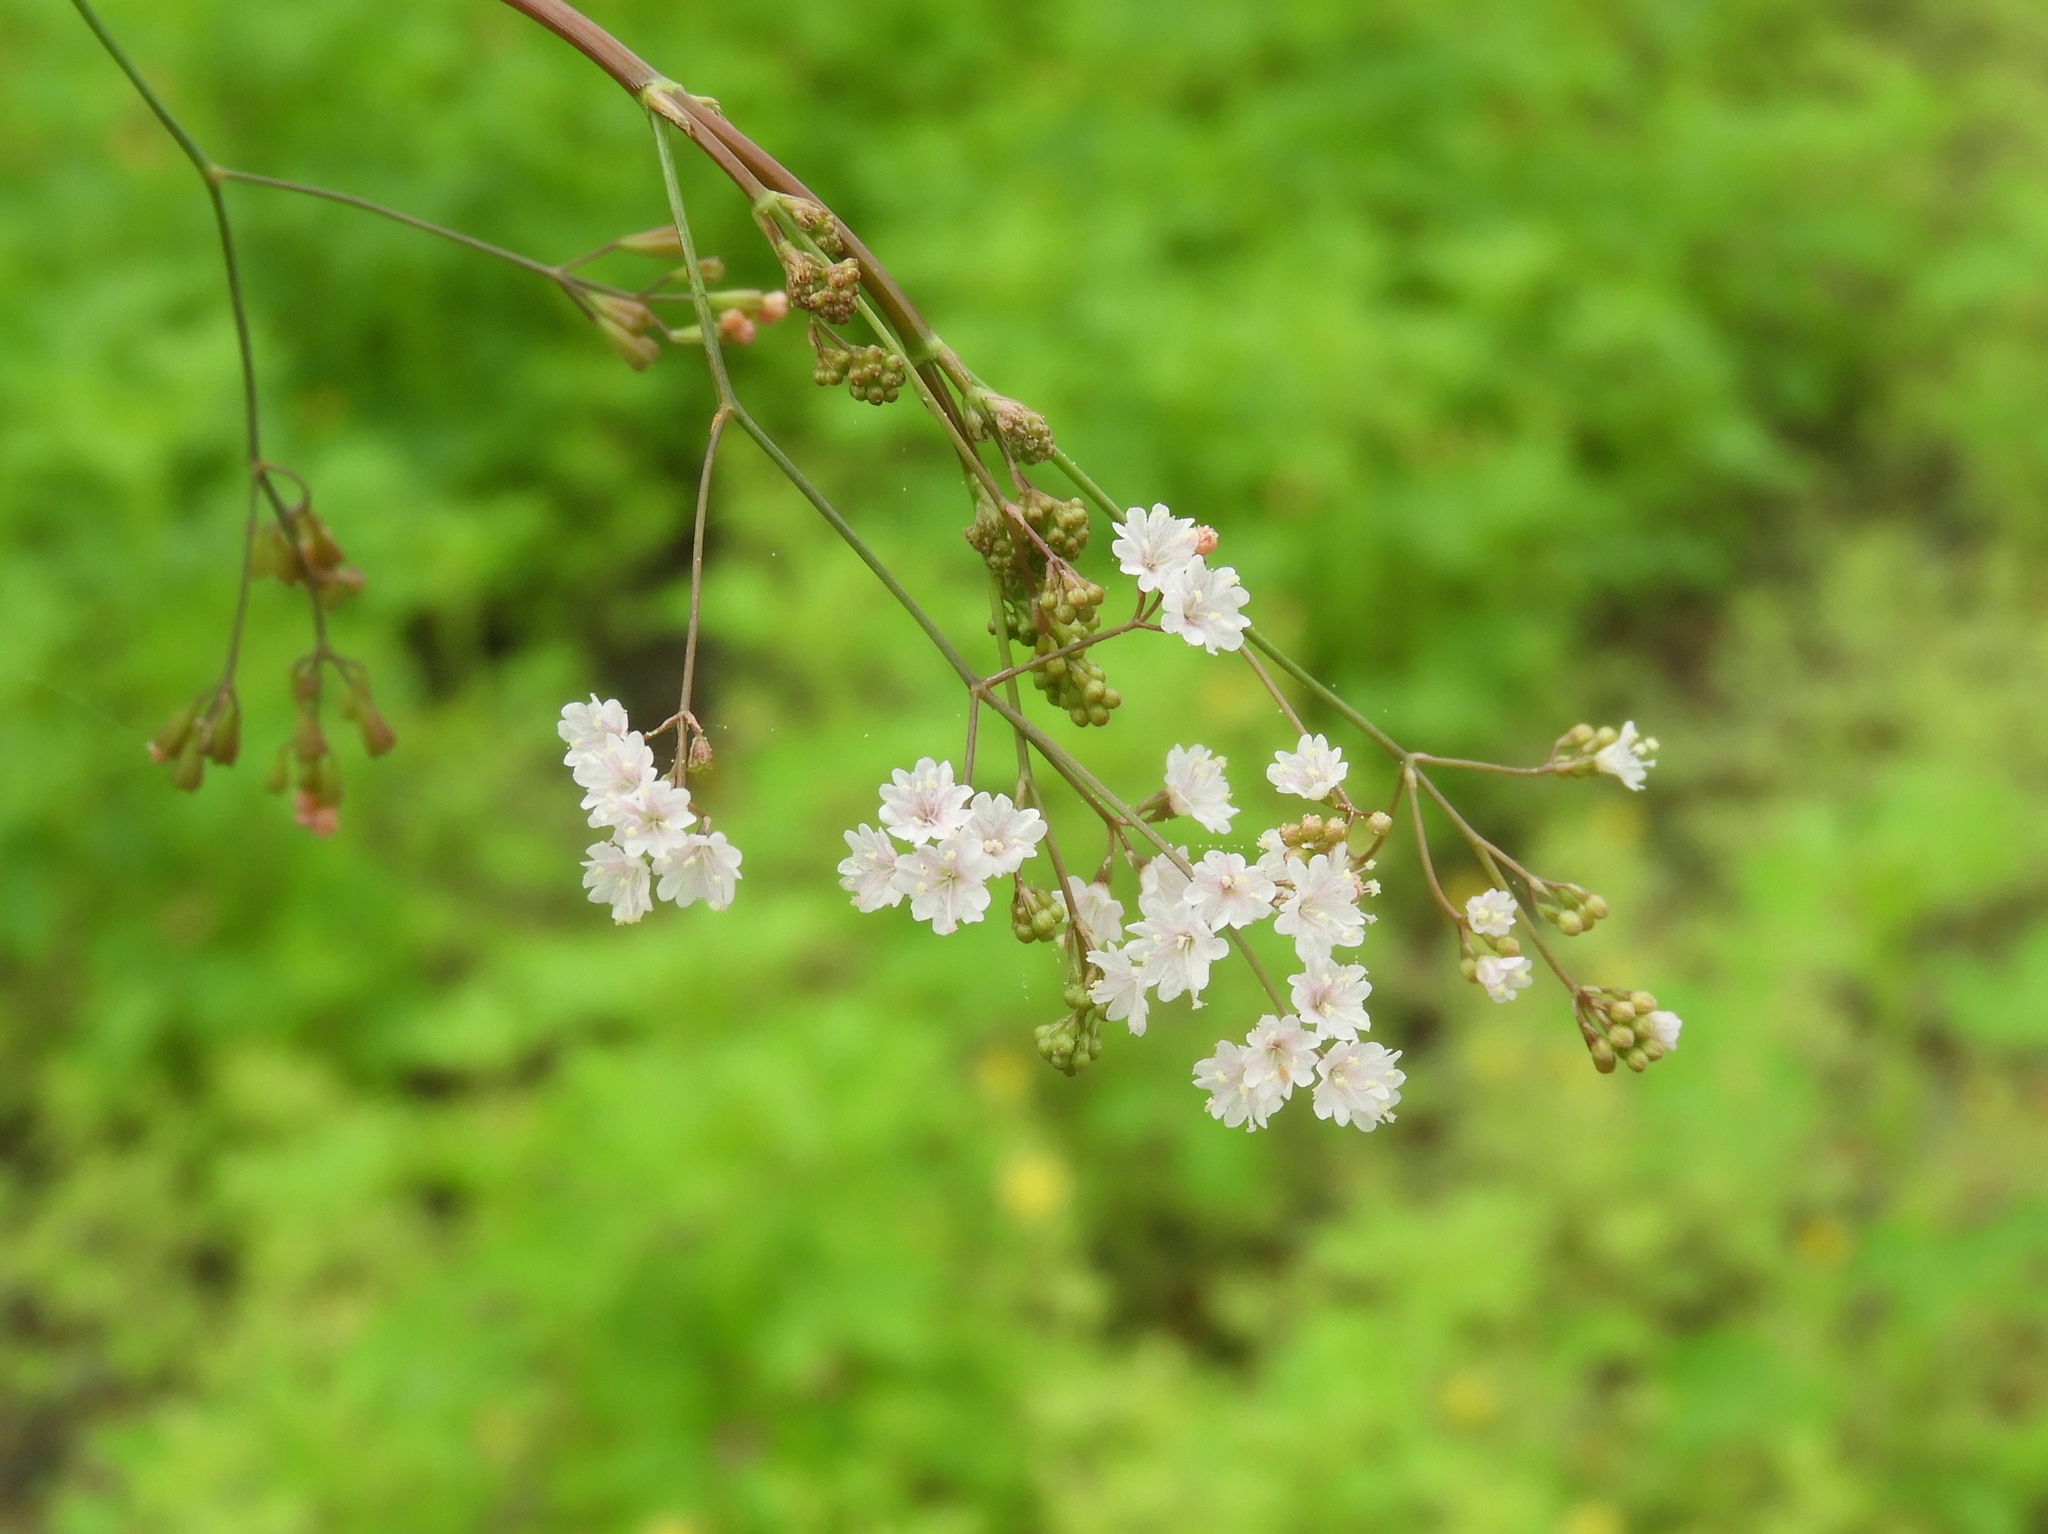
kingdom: Plantae
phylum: Tracheophyta
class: Magnoliopsida
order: Caryophyllales
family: Nyctaginaceae
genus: Boerhavia
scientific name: Boerhavia xantii
